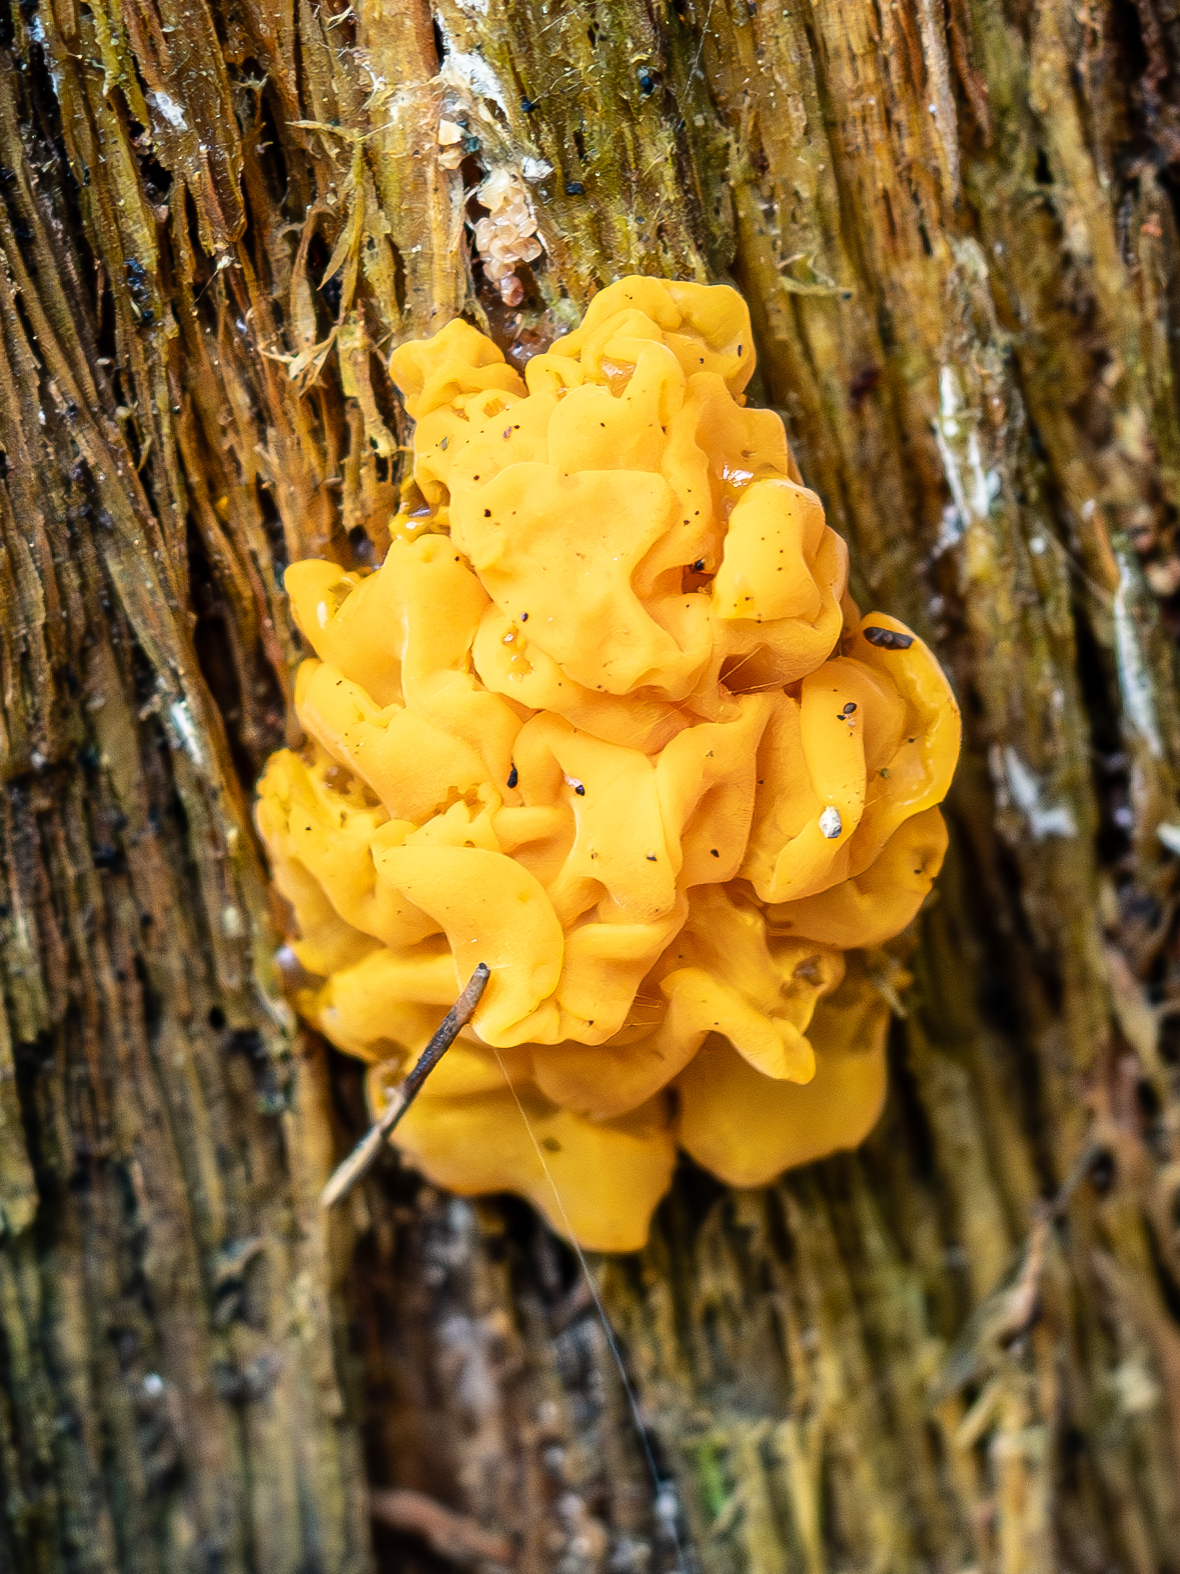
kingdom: Fungi
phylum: Basidiomycota
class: Dacrymycetes
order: Dacrymycetales
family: Dacrymycetaceae
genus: Dacrymyces
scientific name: Dacrymyces chrysospermus
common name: Orange jelly spot
